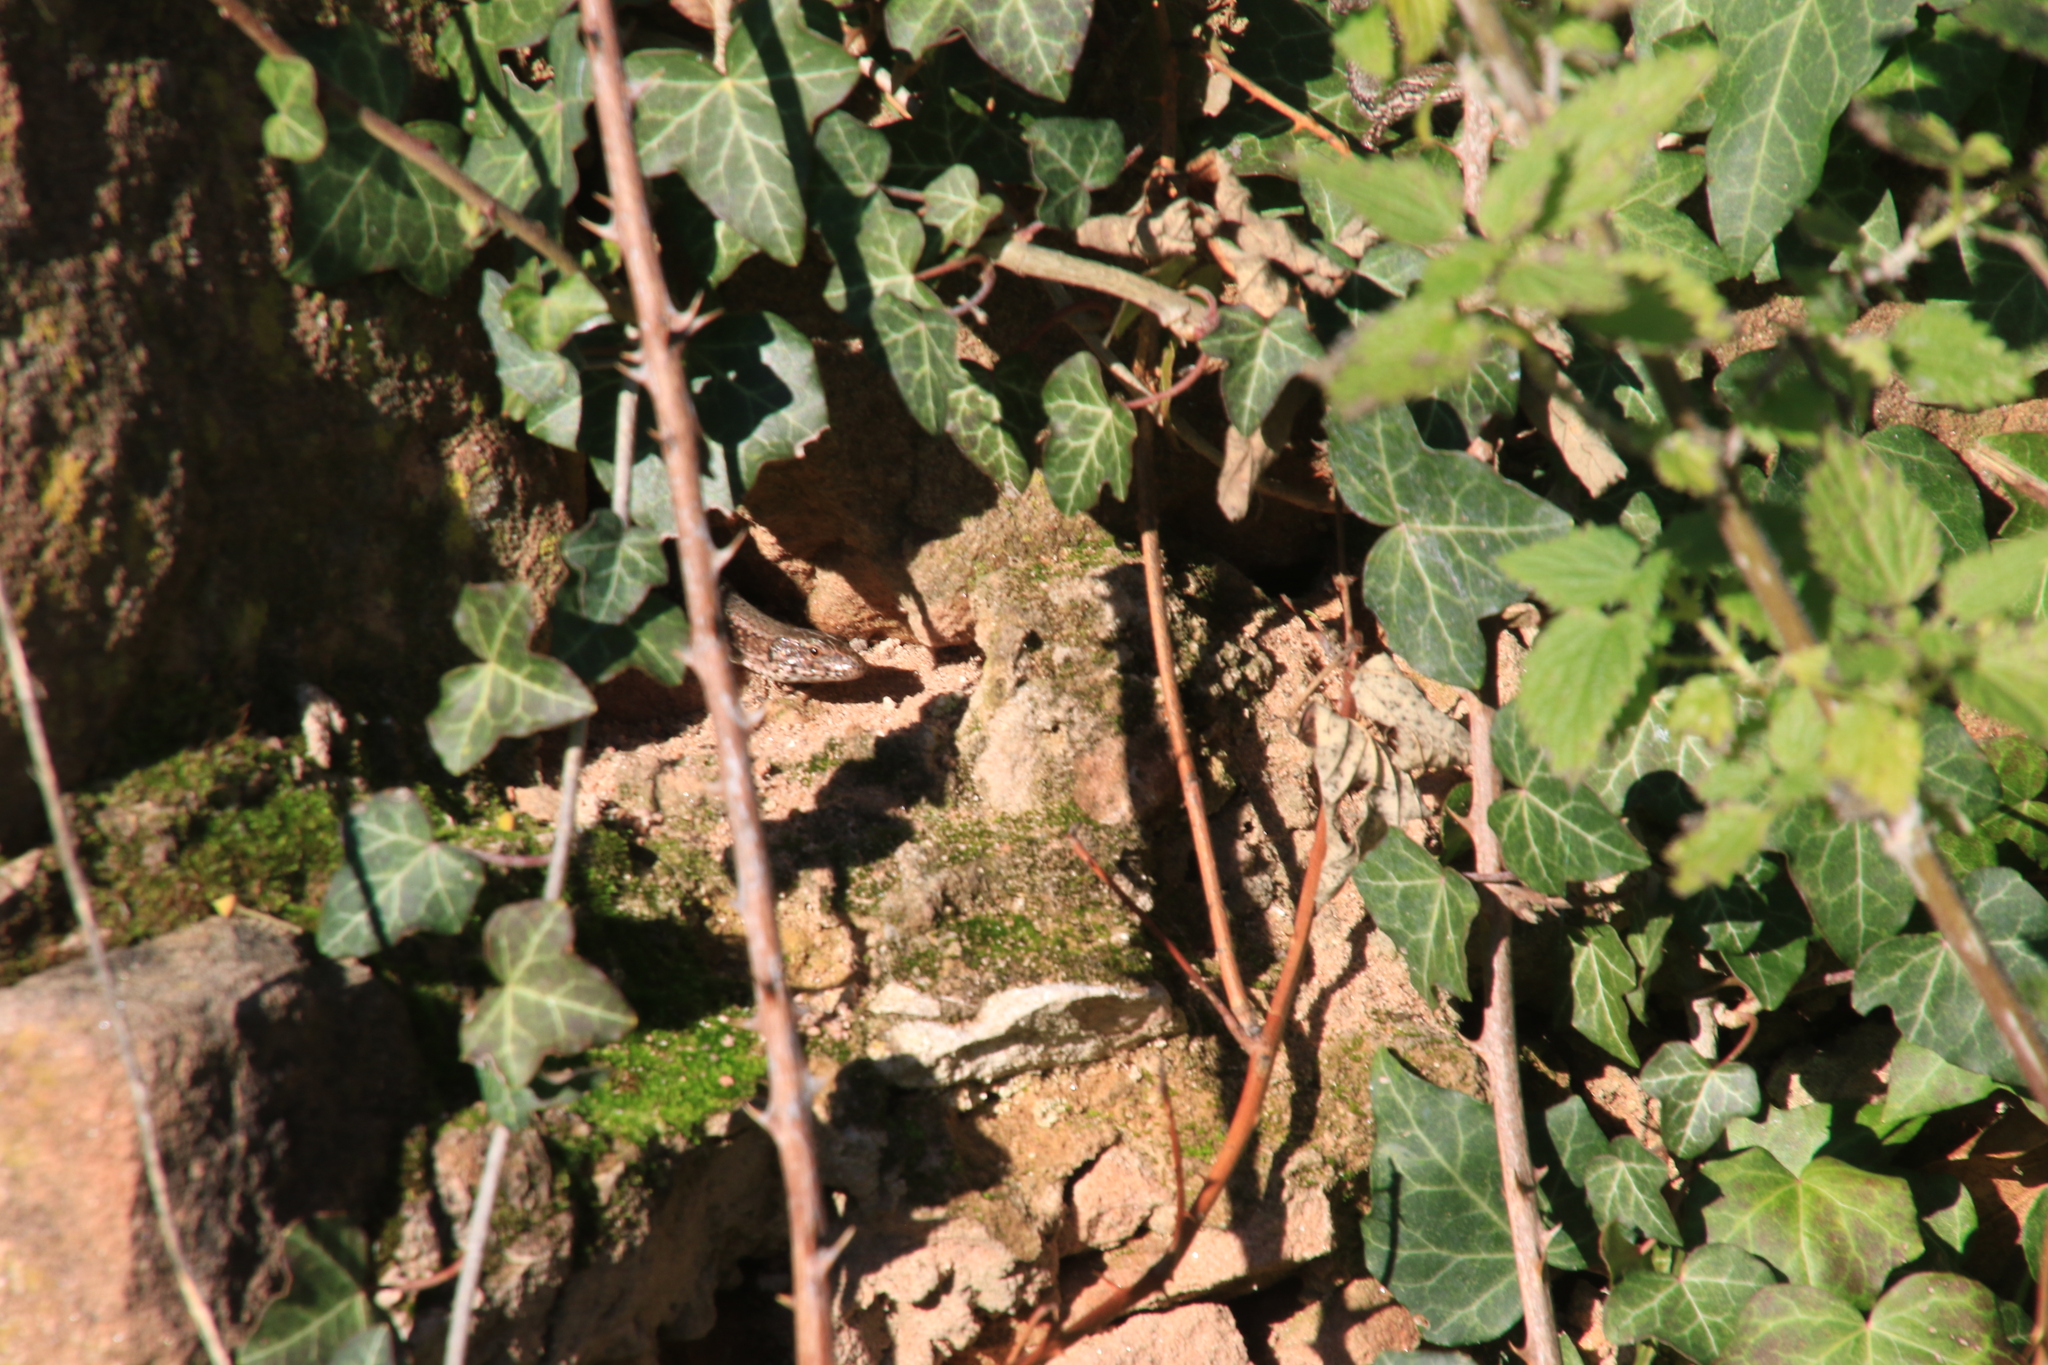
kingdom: Animalia
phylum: Chordata
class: Squamata
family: Lacertidae
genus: Podarcis
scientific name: Podarcis muralis
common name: Common wall lizard
